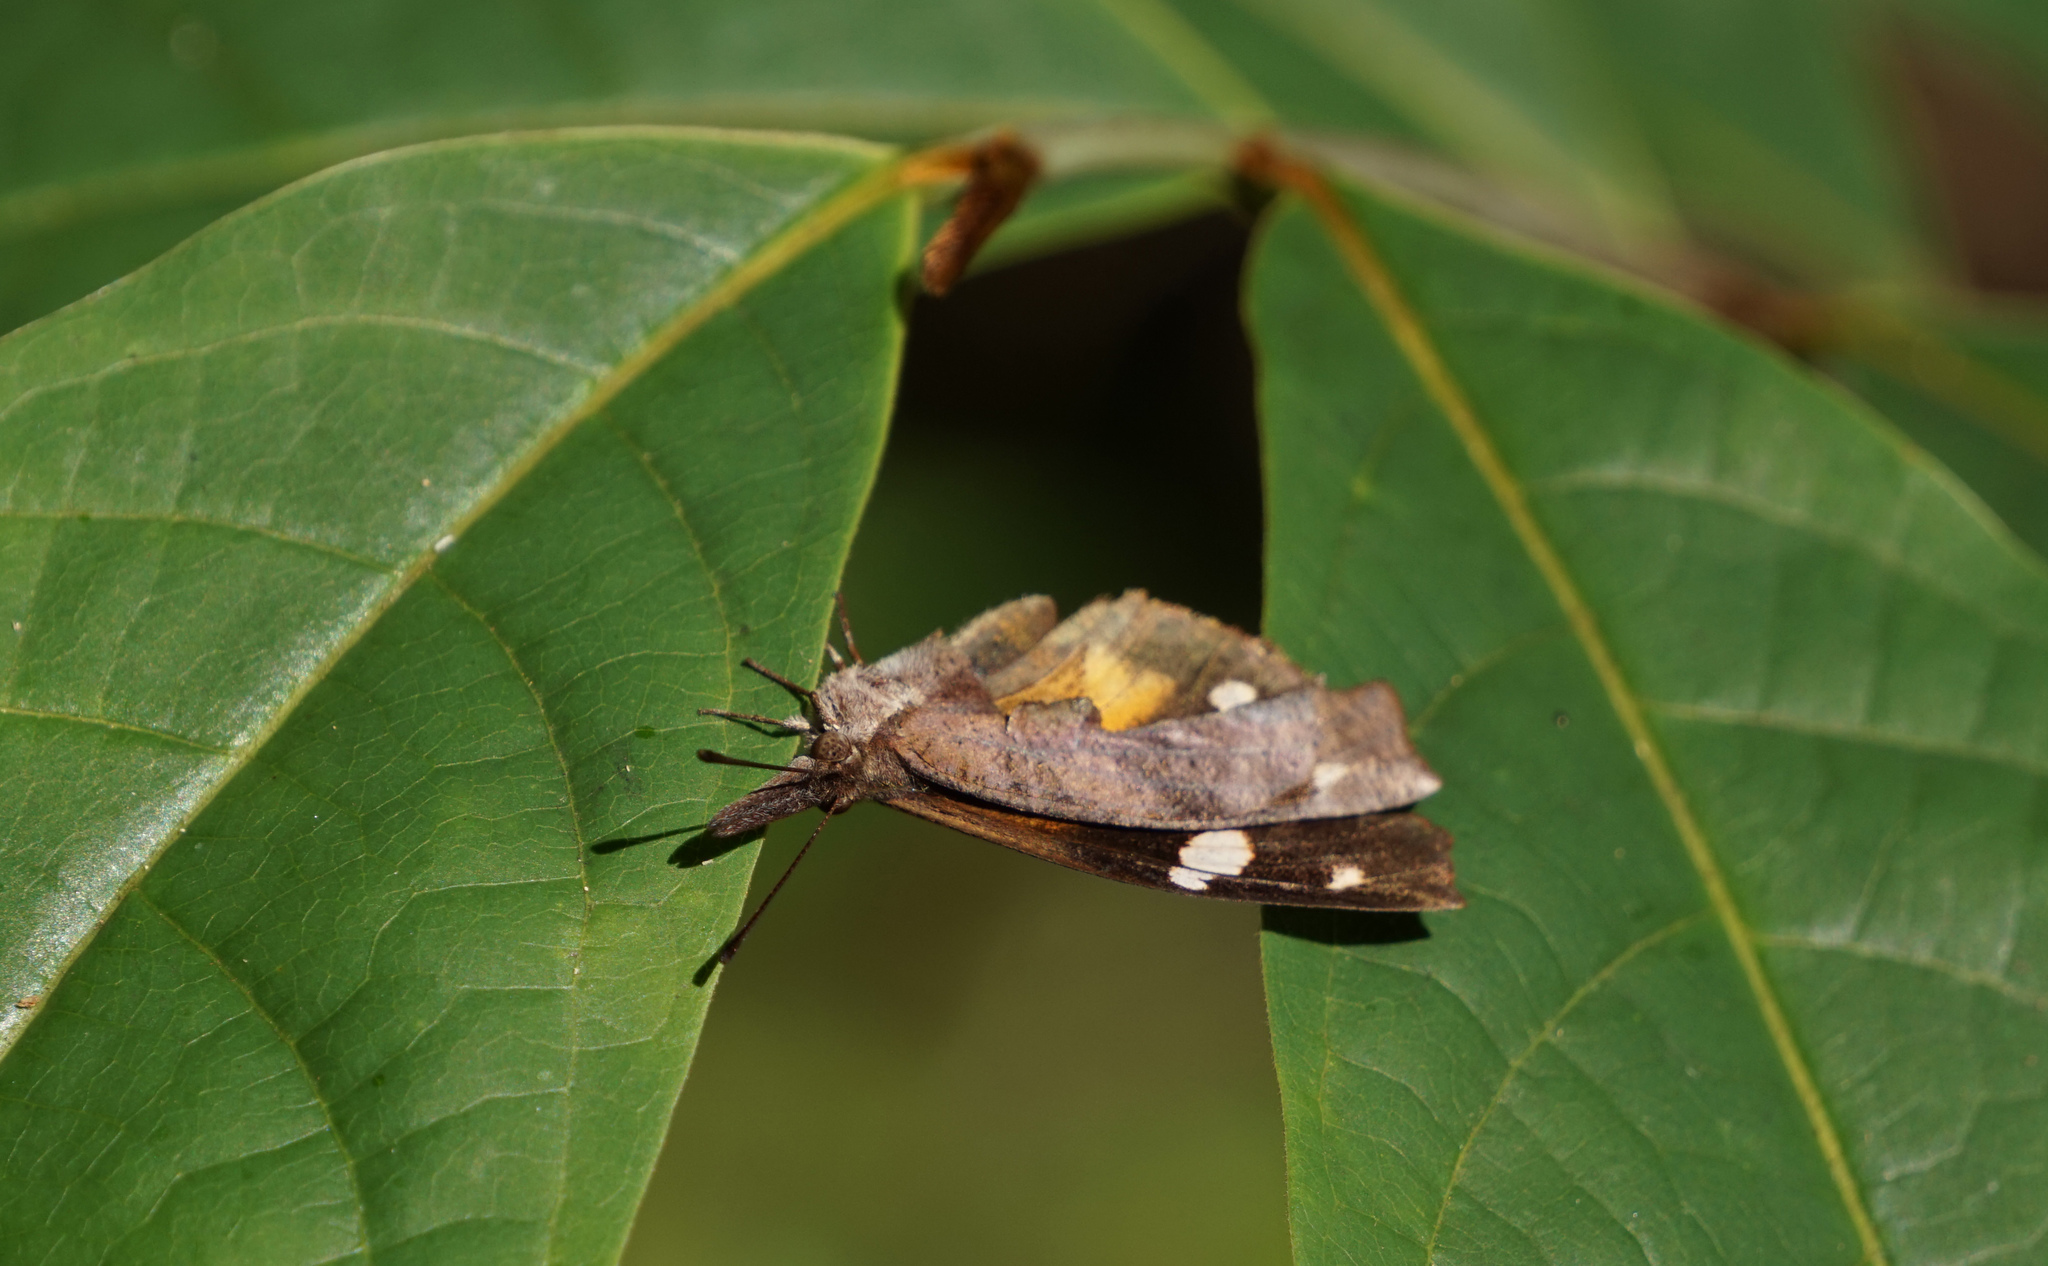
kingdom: Animalia
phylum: Arthropoda
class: Insecta
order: Lepidoptera
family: Nymphalidae
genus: Libytheana
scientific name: Libytheana carinenta
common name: American snout
